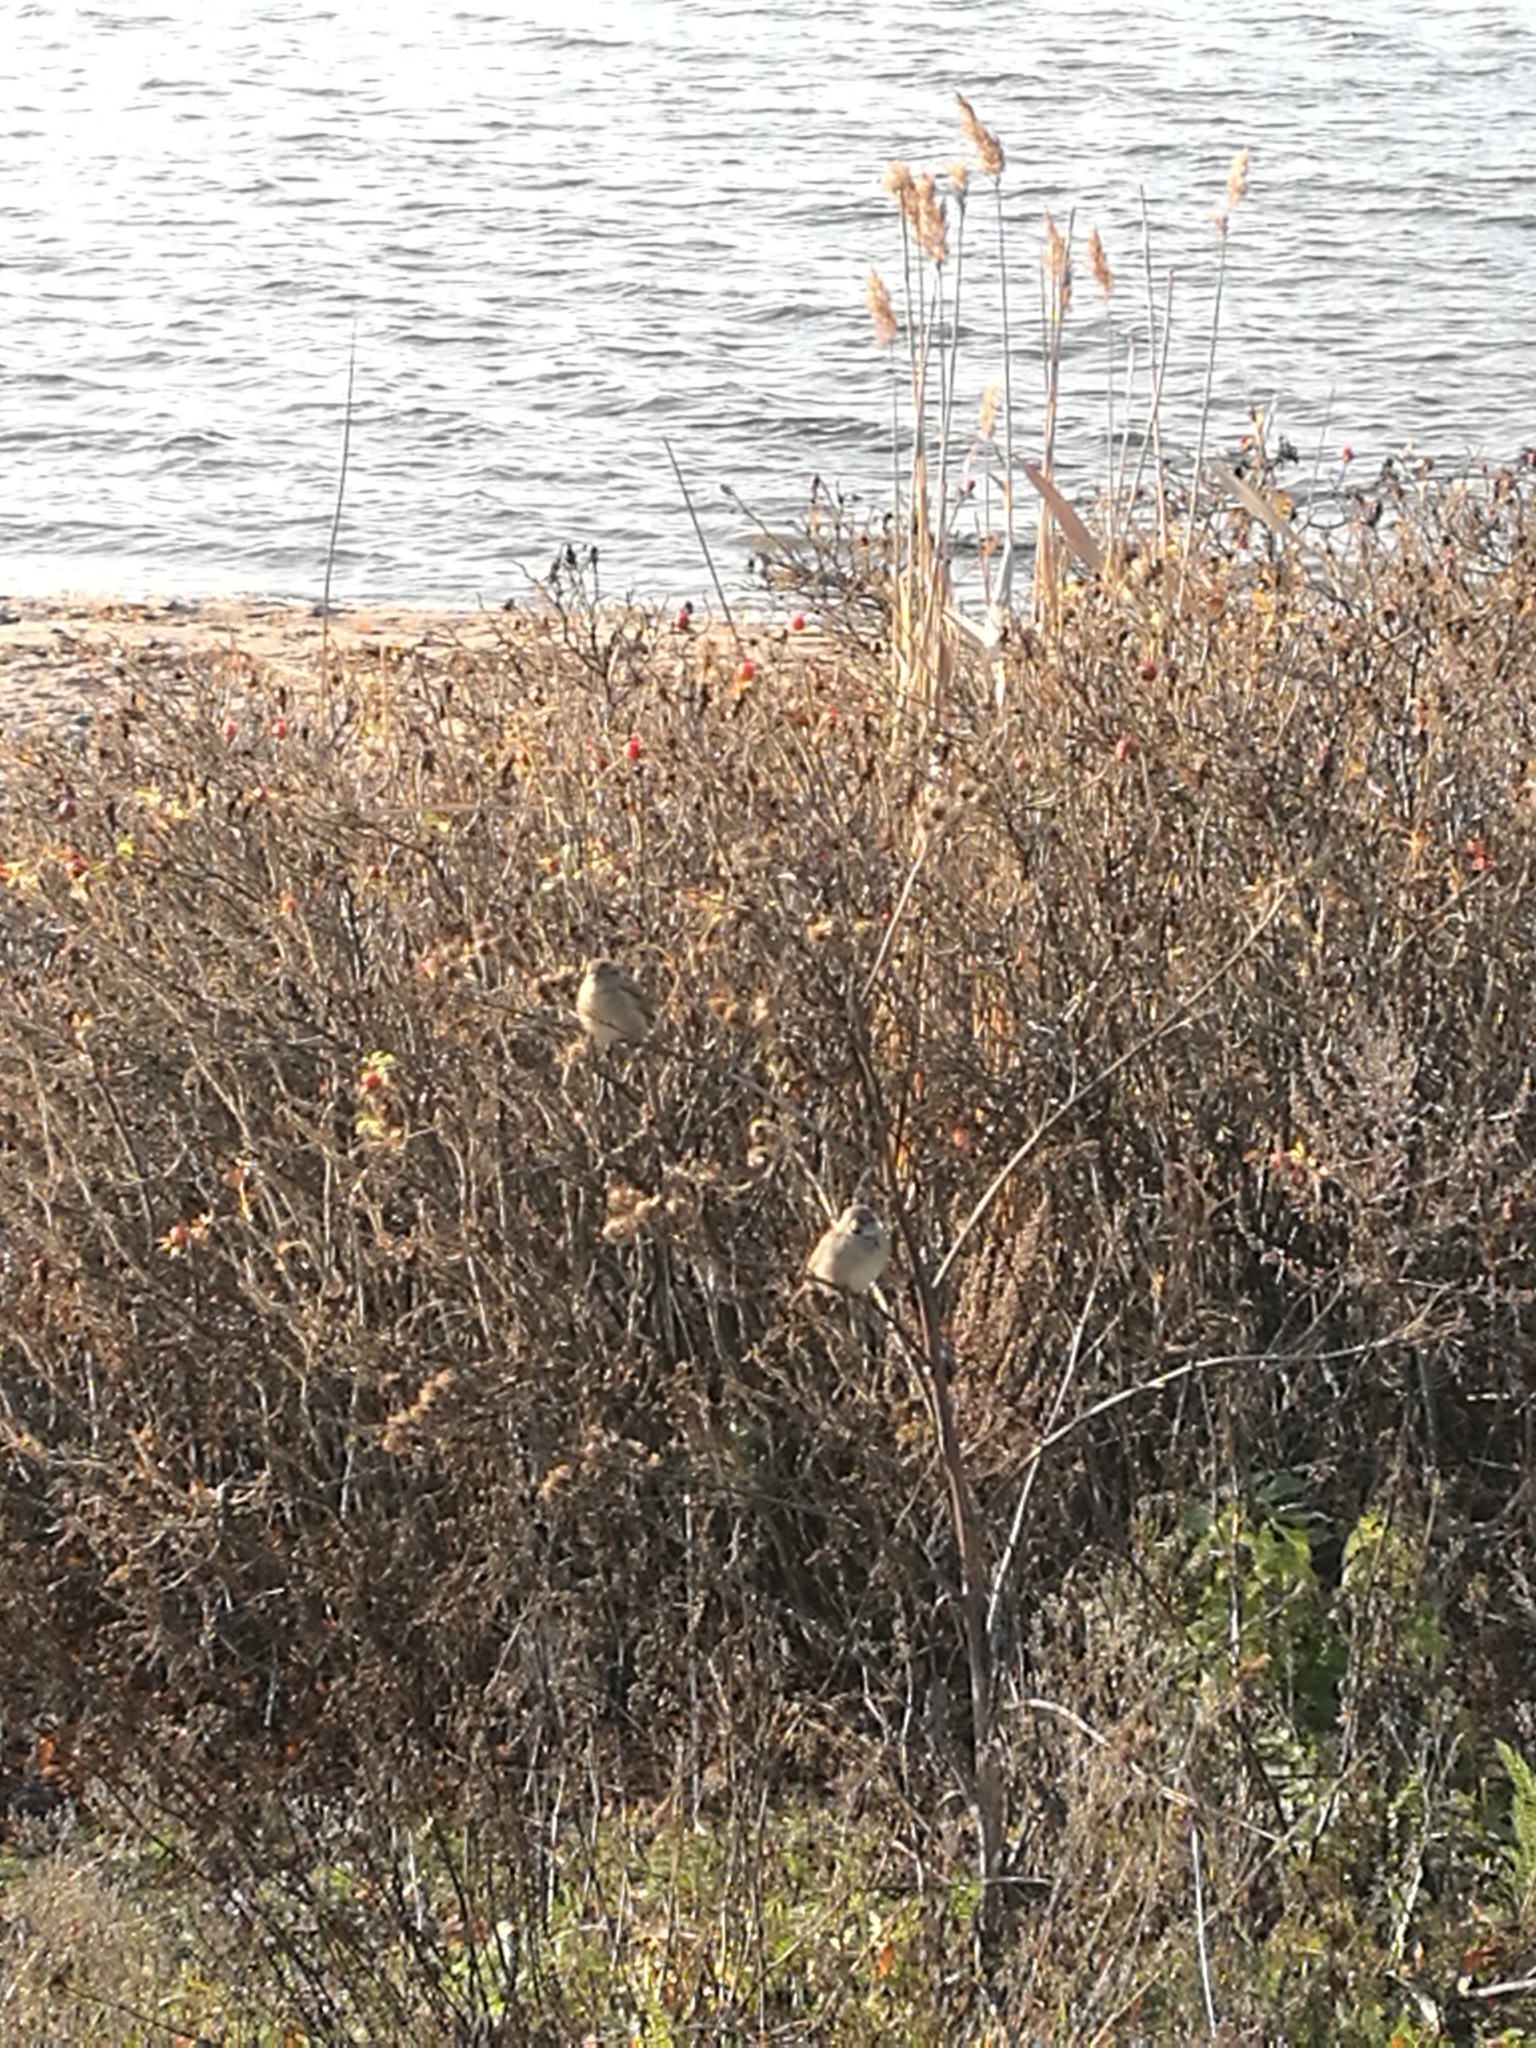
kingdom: Animalia
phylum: Chordata
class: Aves
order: Passeriformes
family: Passeridae
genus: Passer
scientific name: Passer domesticus
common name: House sparrow
